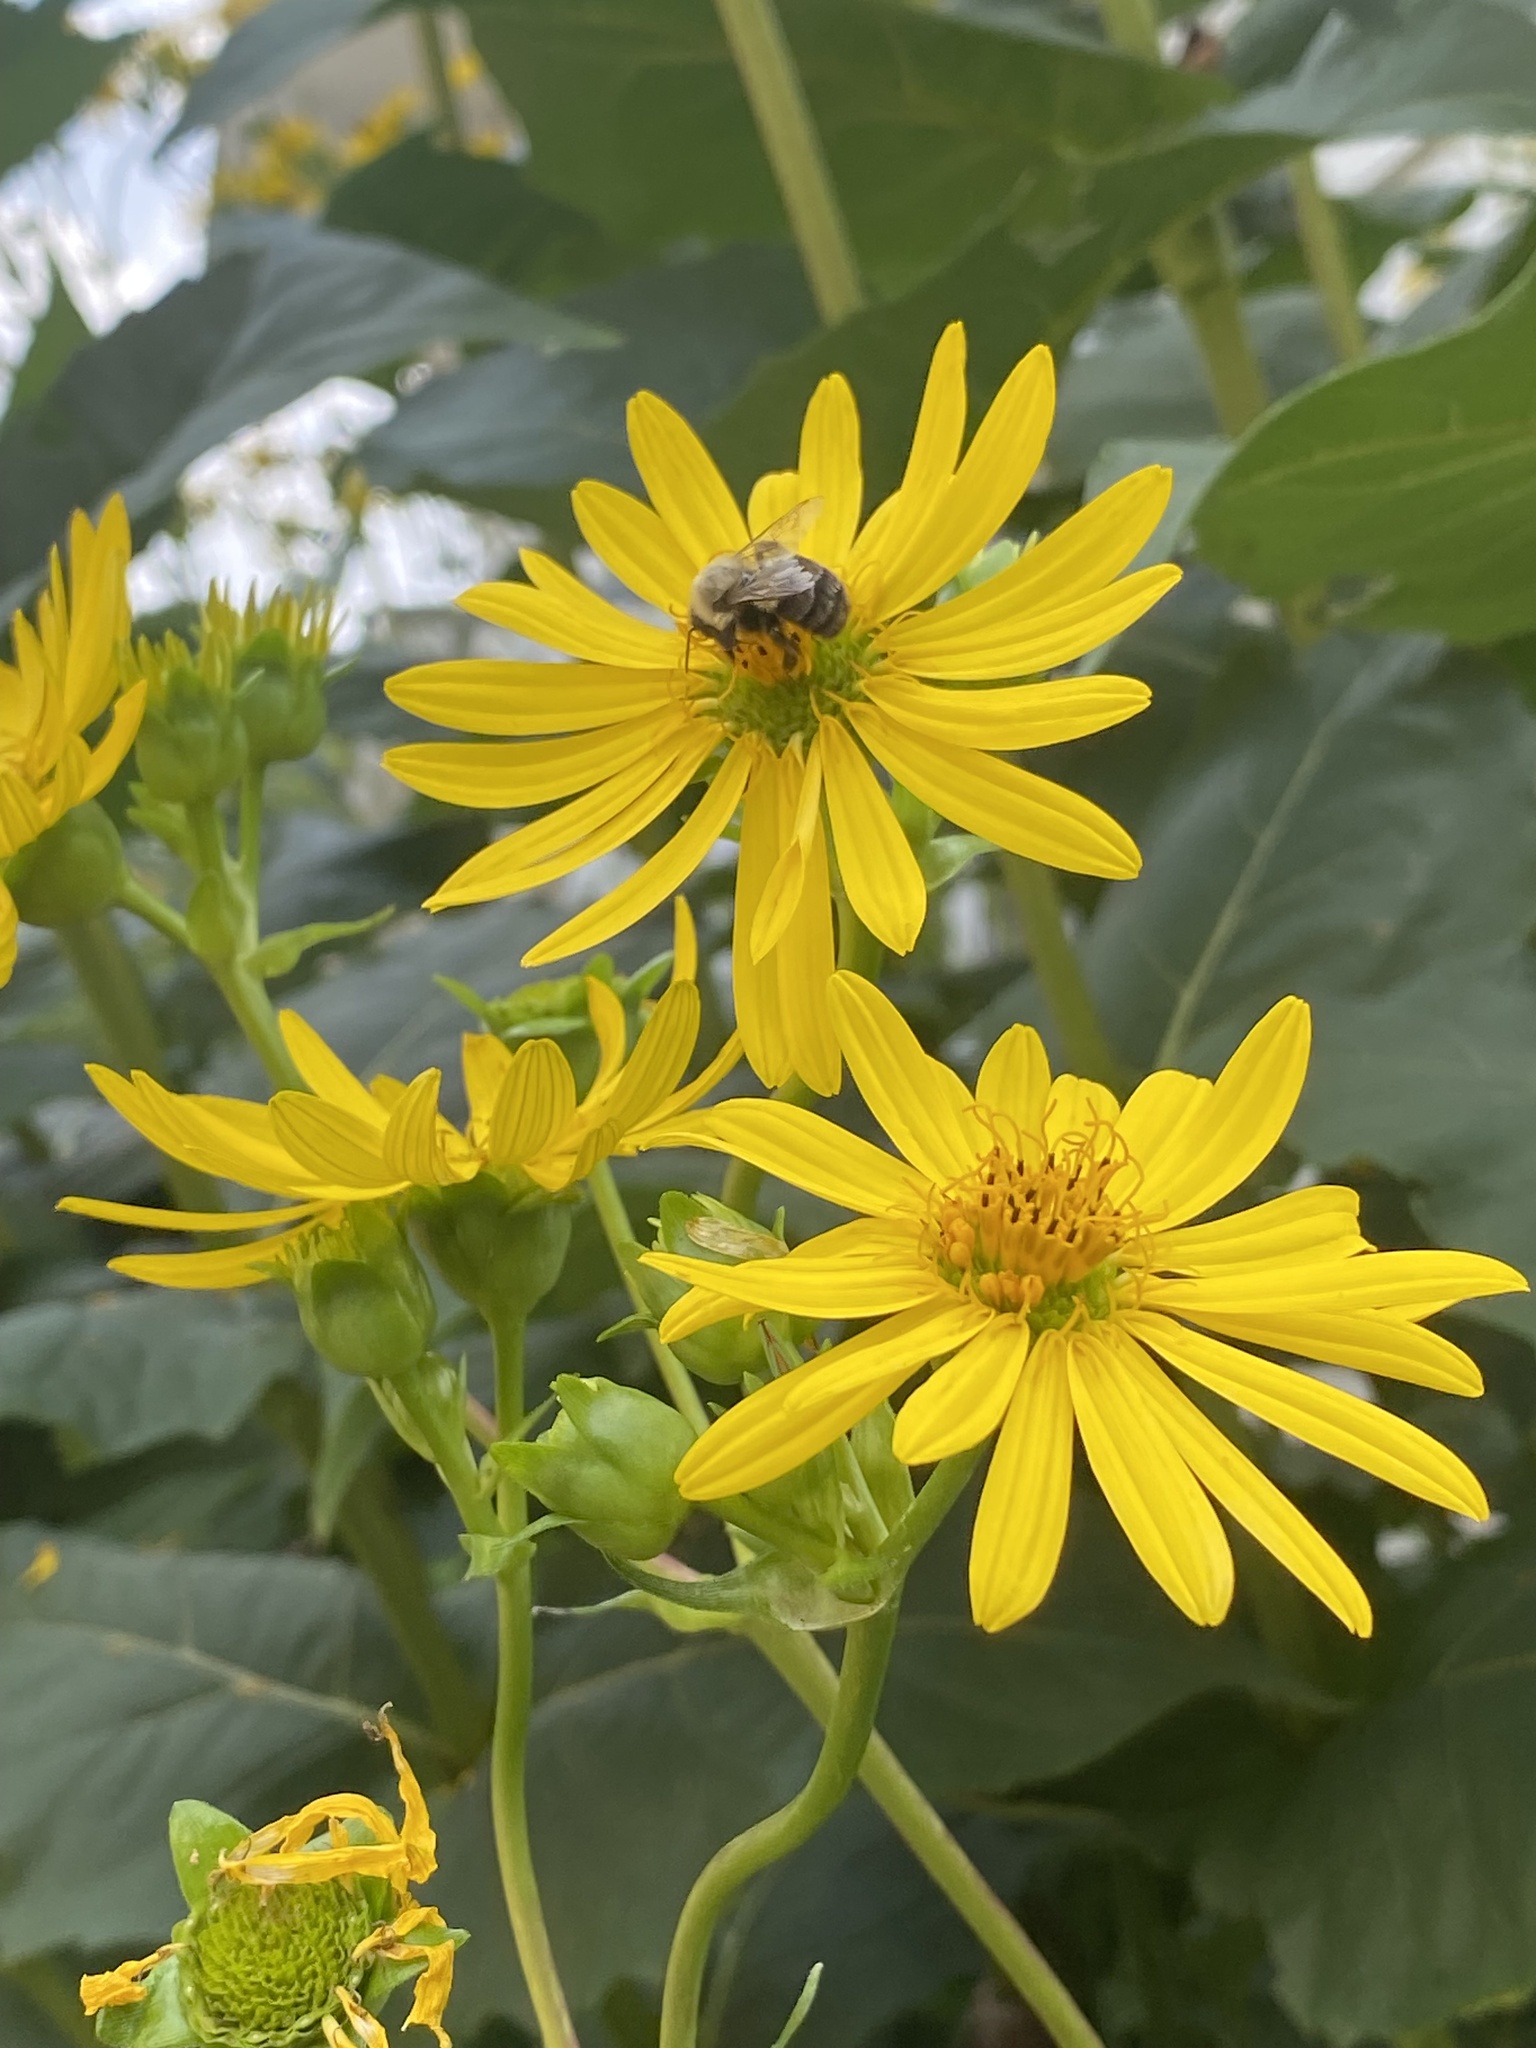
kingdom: Plantae
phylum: Tracheophyta
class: Magnoliopsida
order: Asterales
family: Asteraceae
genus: Silphium
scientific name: Silphium perfoliatum
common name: Cup-plant
